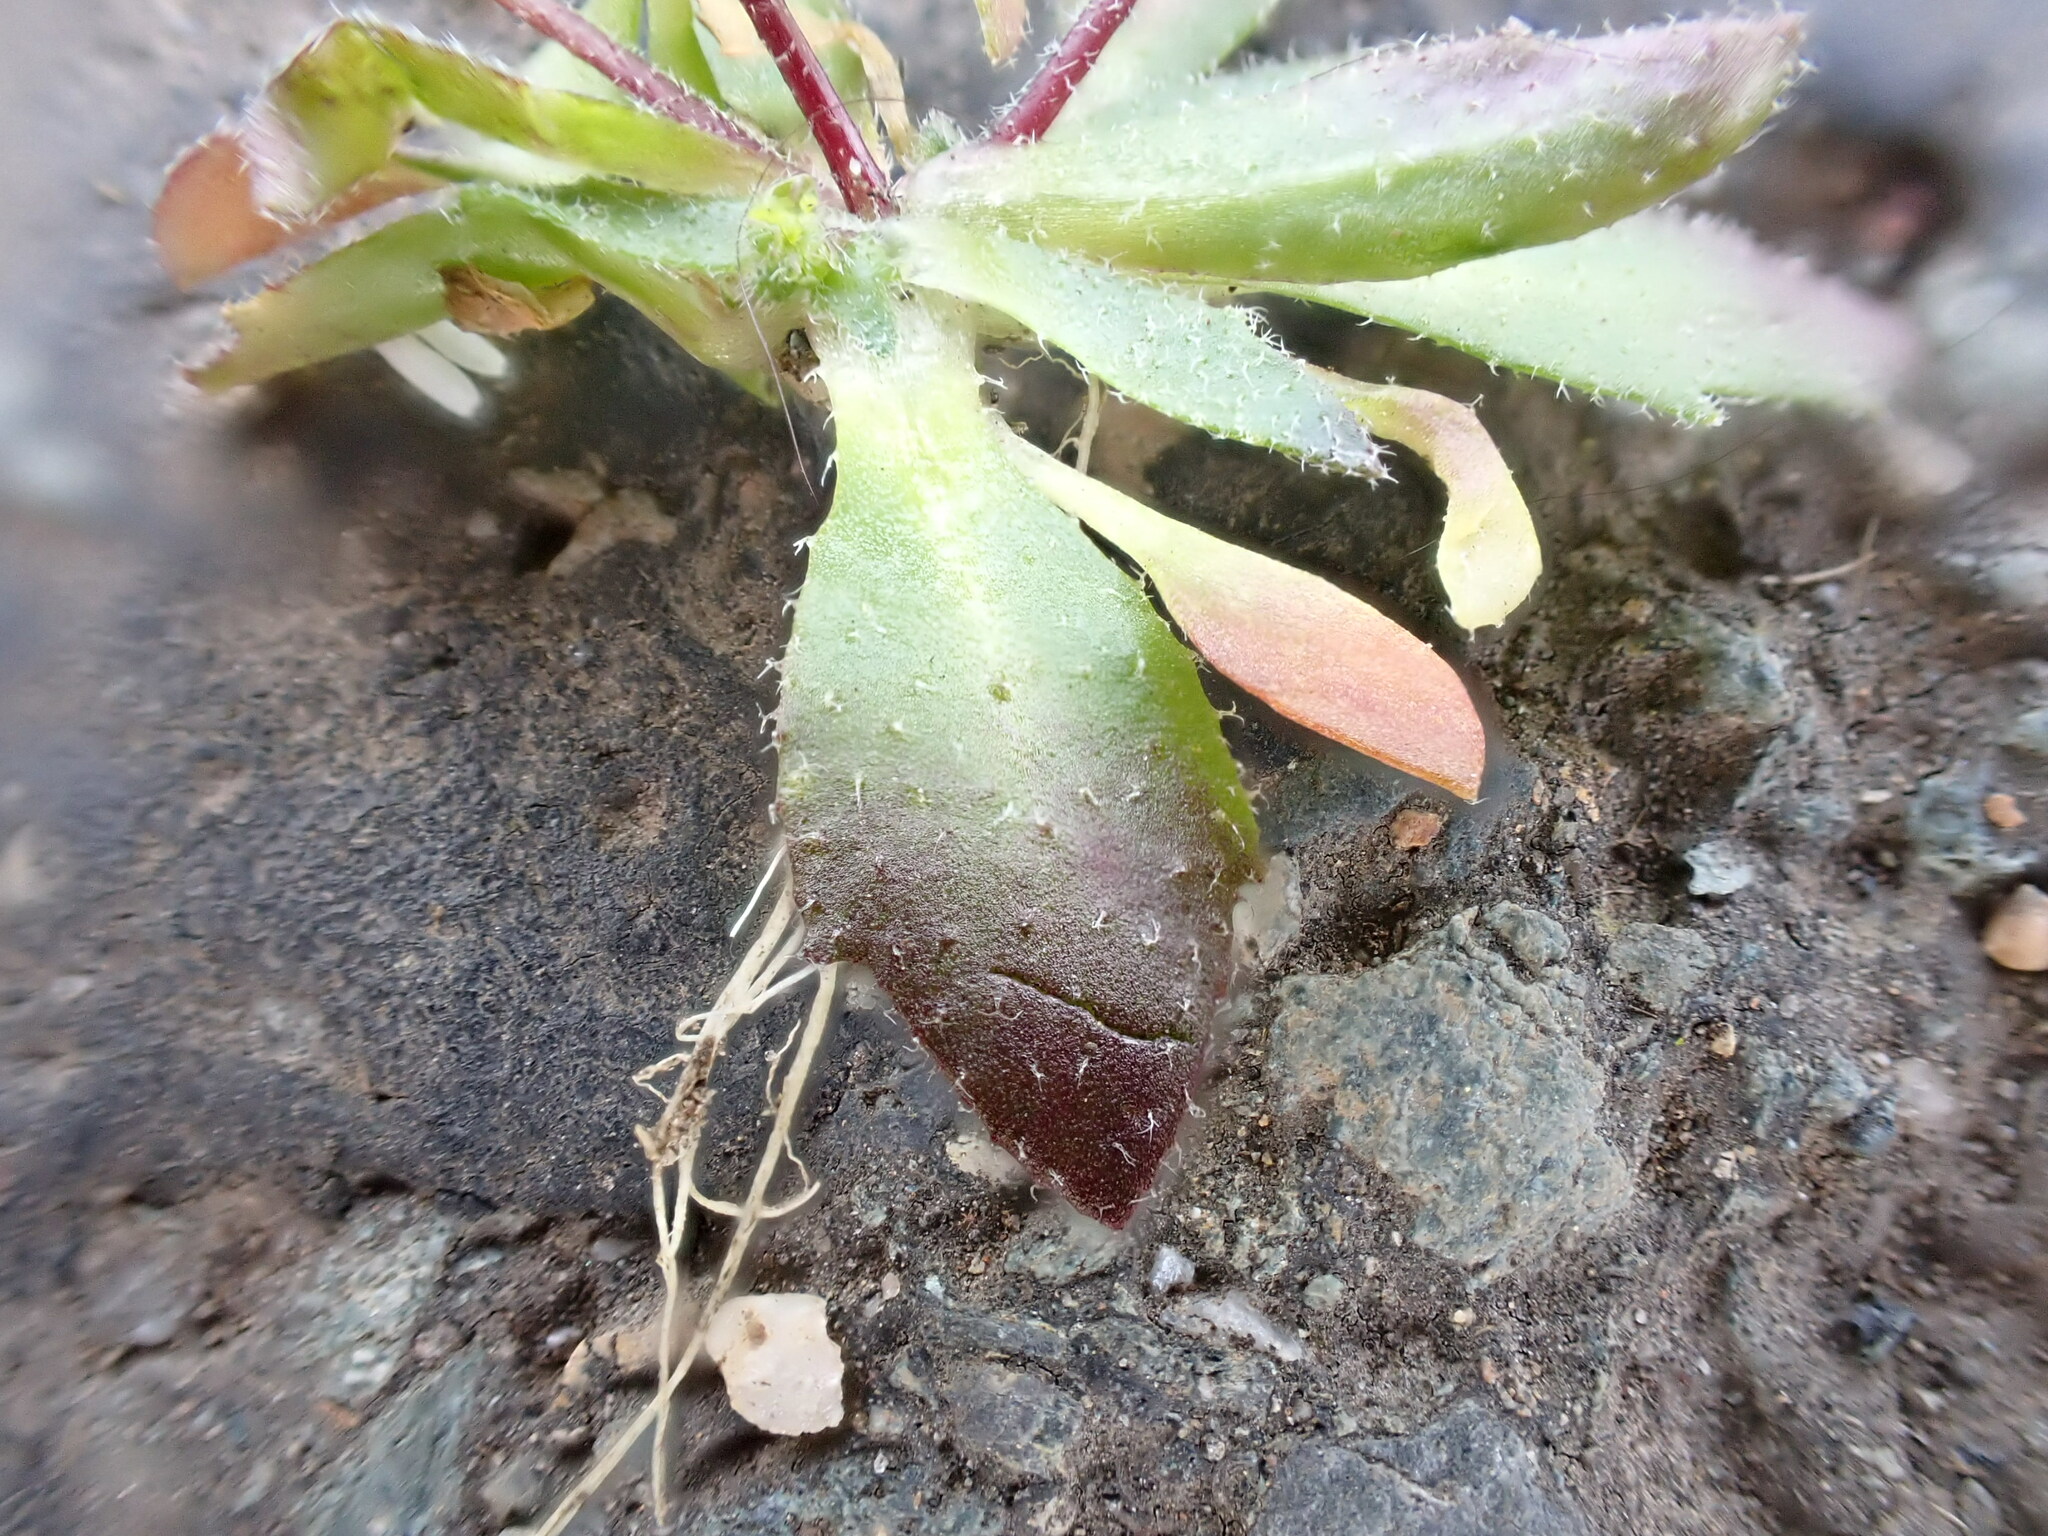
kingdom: Plantae
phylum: Tracheophyta
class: Magnoliopsida
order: Brassicales
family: Brassicaceae
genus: Draba
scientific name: Draba verna
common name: Spring draba
